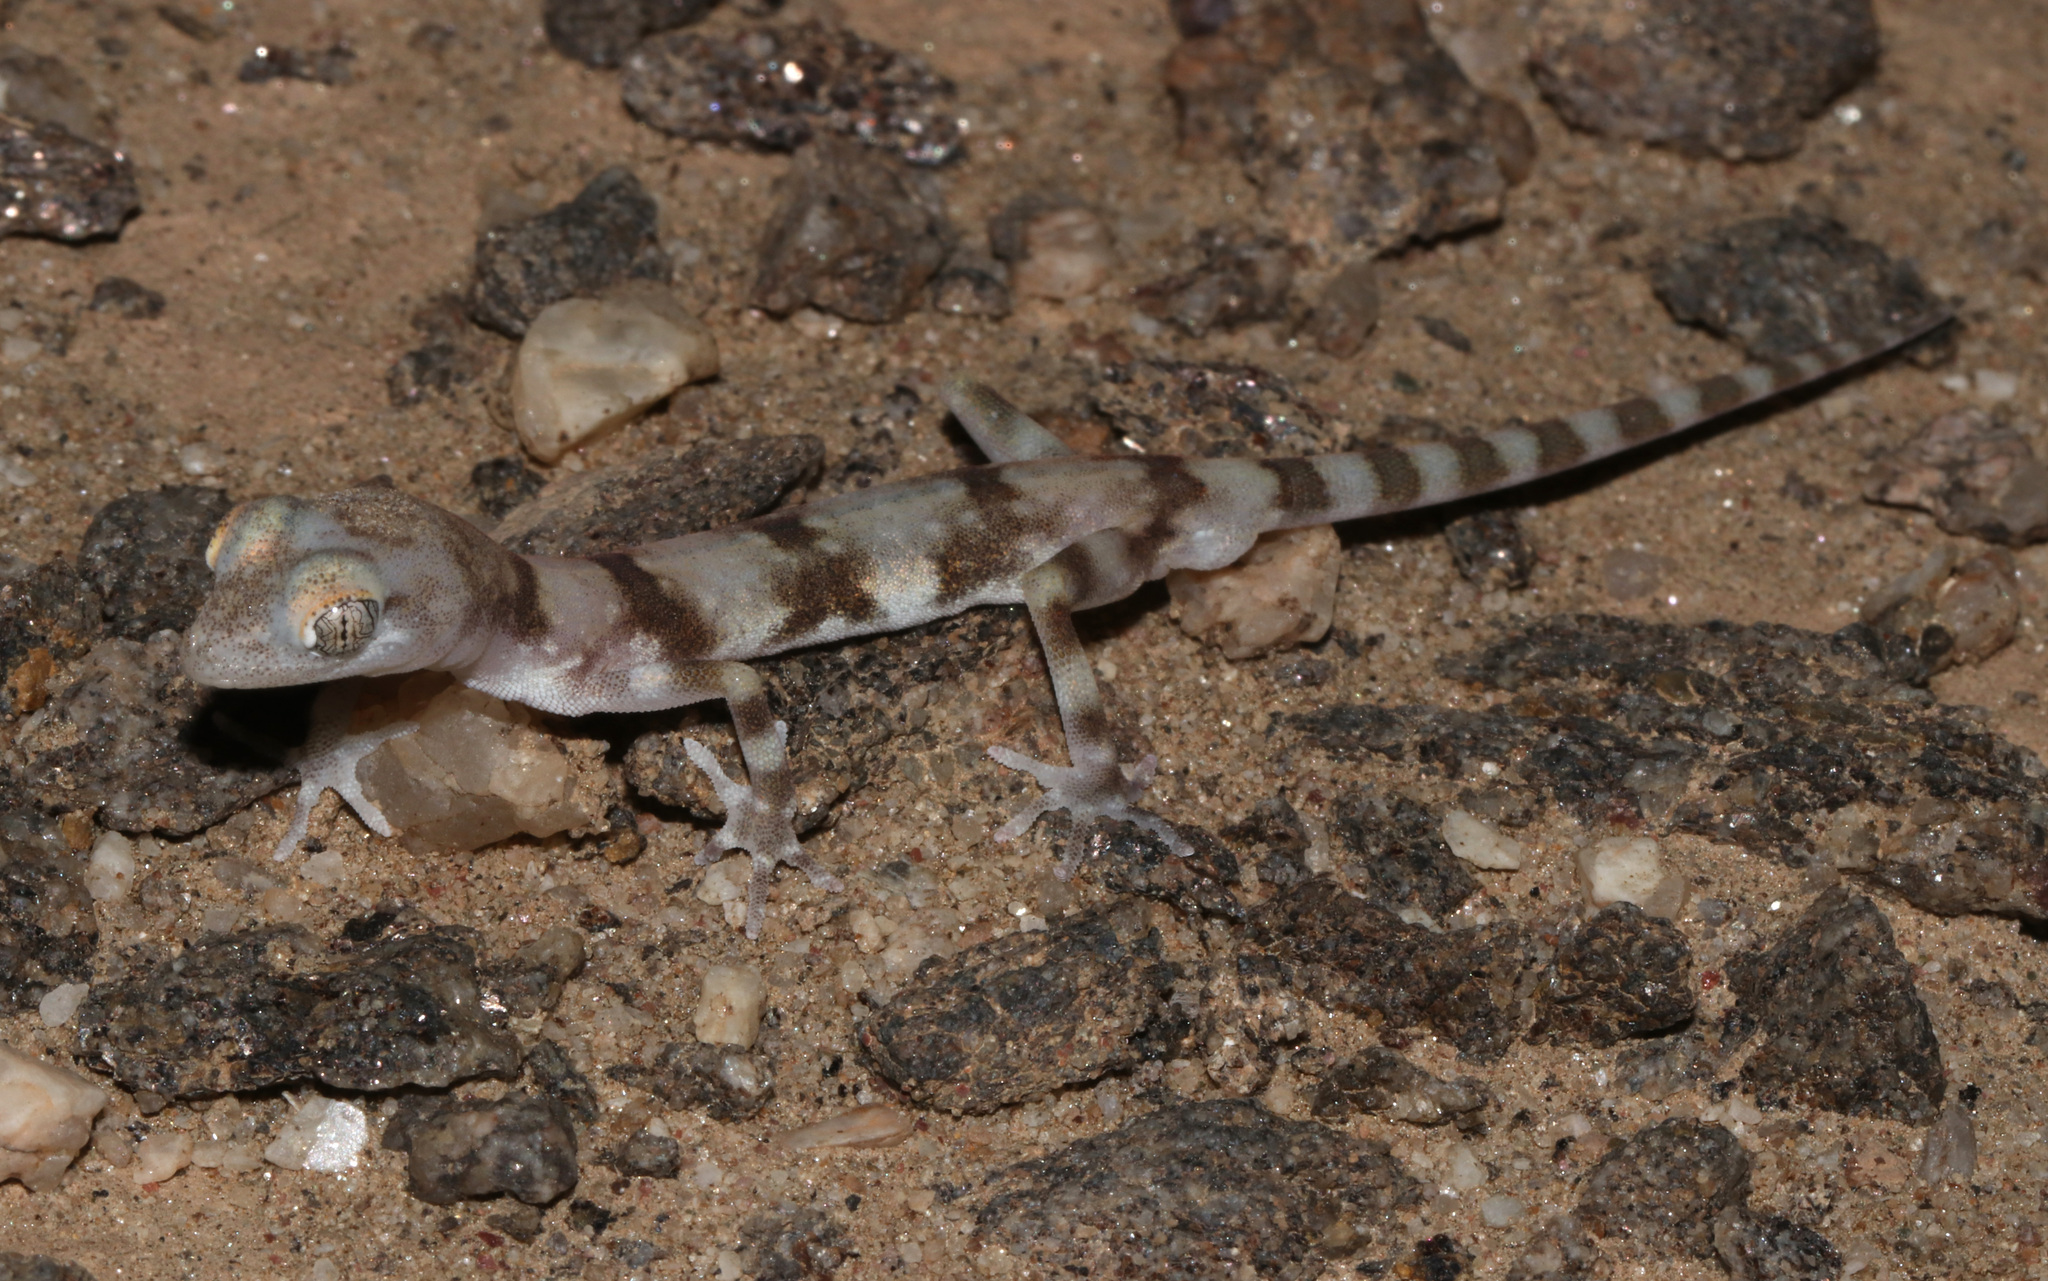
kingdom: Animalia
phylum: Chordata
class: Squamata
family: Gekkonidae
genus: Pachydactylus
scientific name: Pachydactylus kochii
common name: Koch’s gecko
